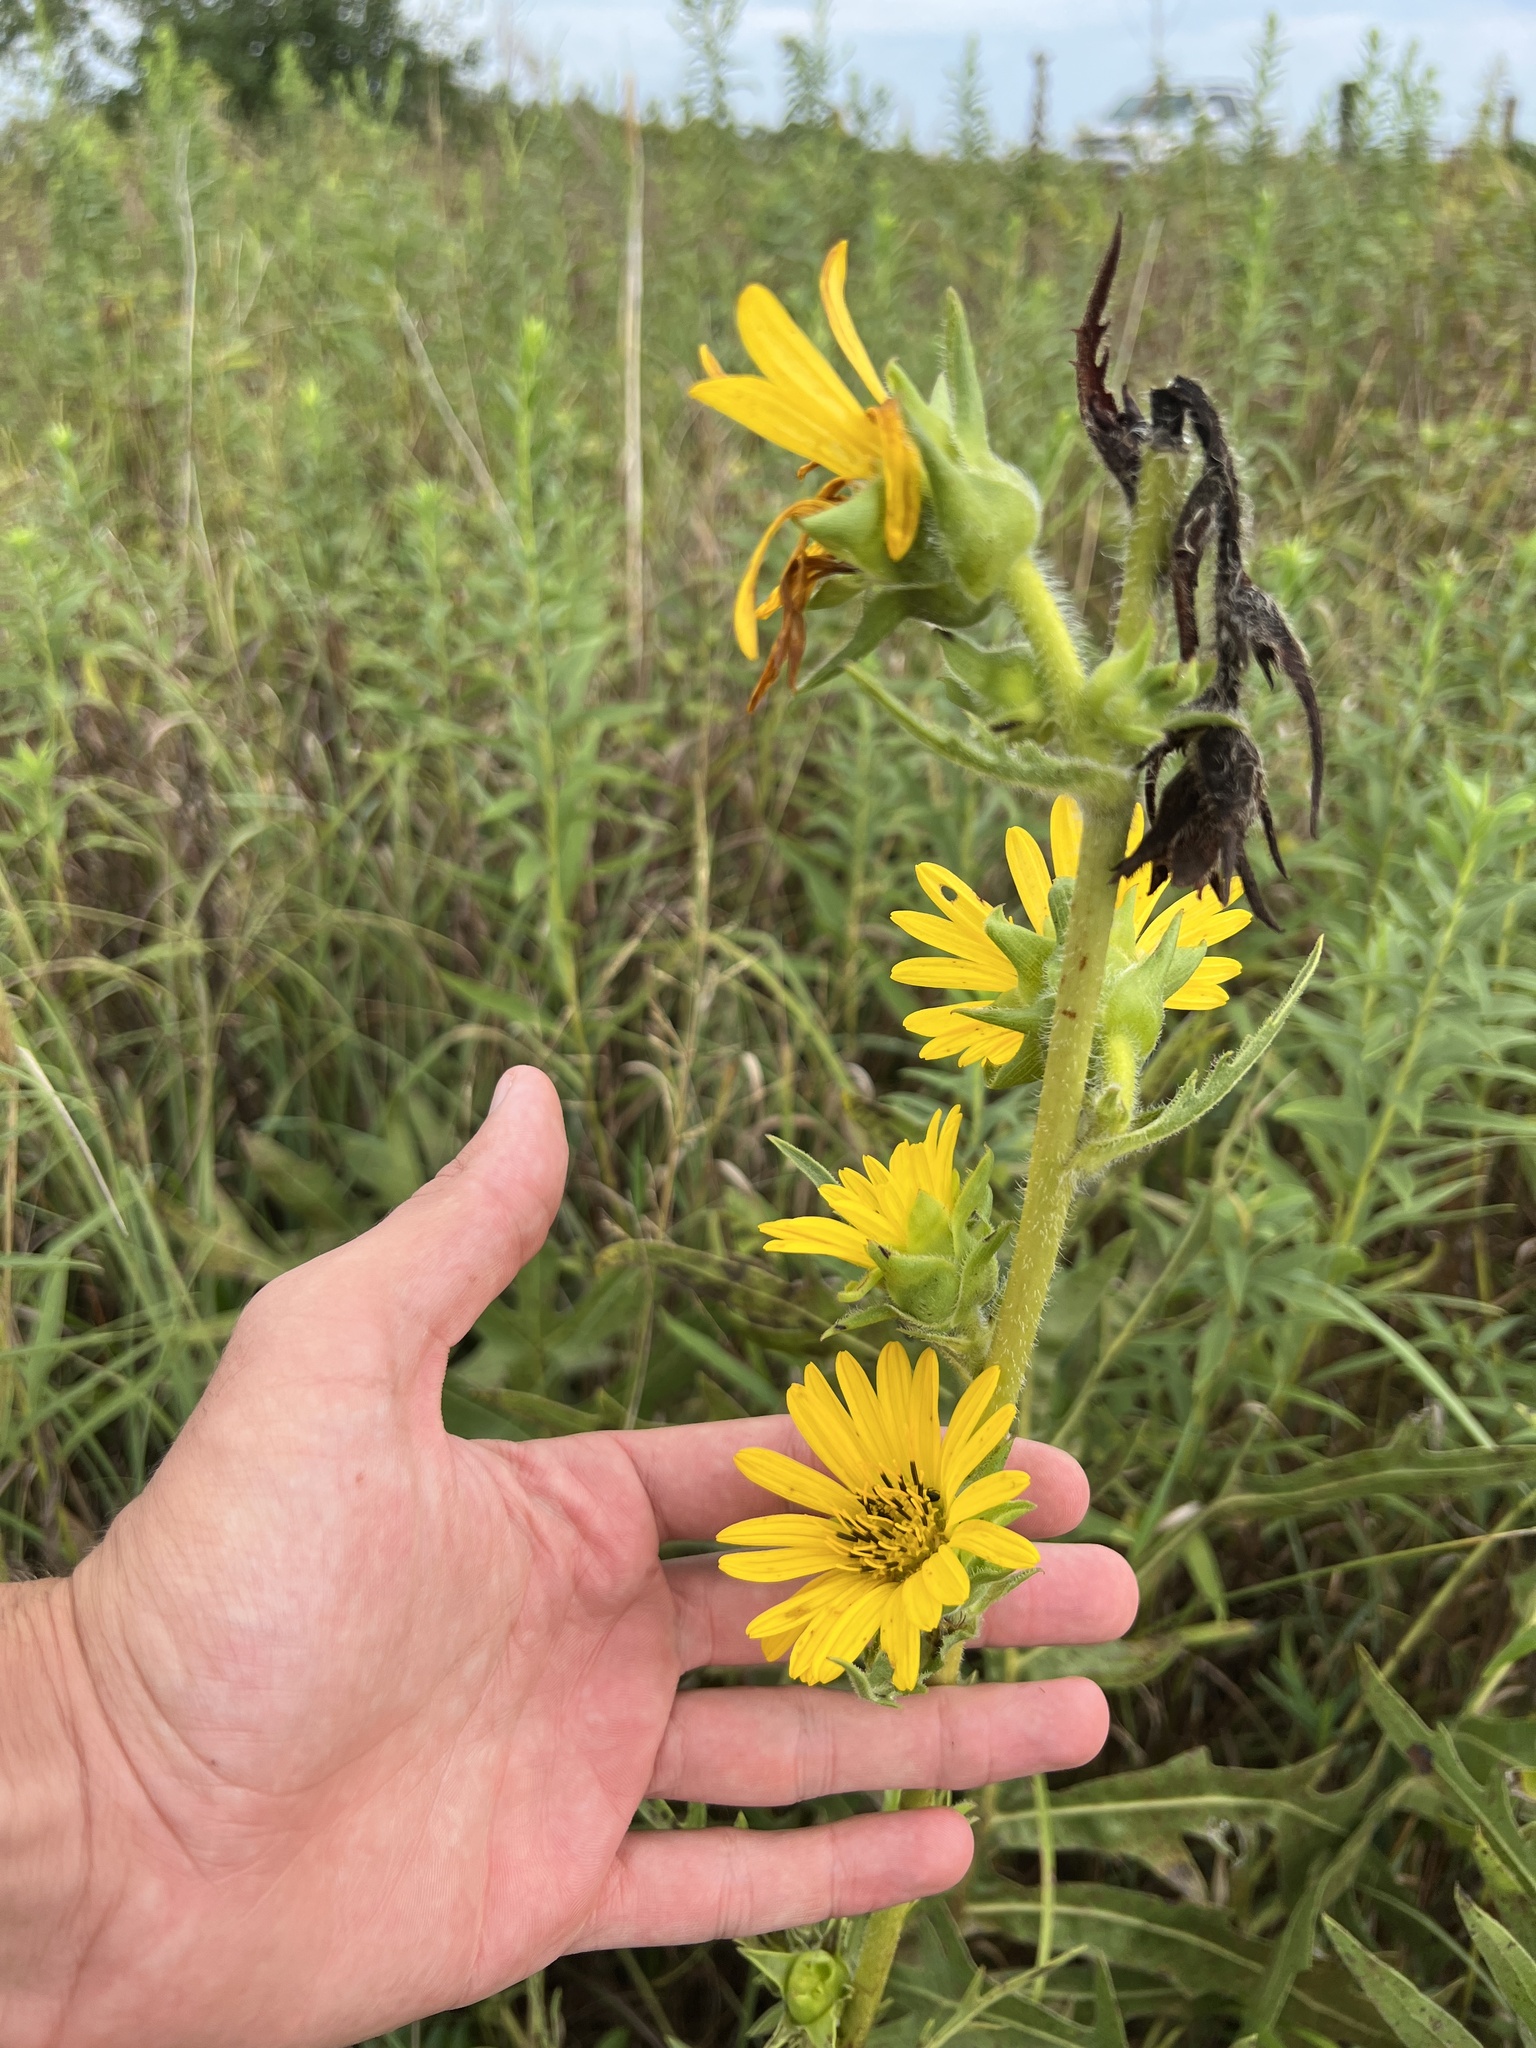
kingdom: Plantae
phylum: Tracheophyta
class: Magnoliopsida
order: Asterales
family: Asteraceae
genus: Silphium
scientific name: Silphium laciniatum
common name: Polarplant
